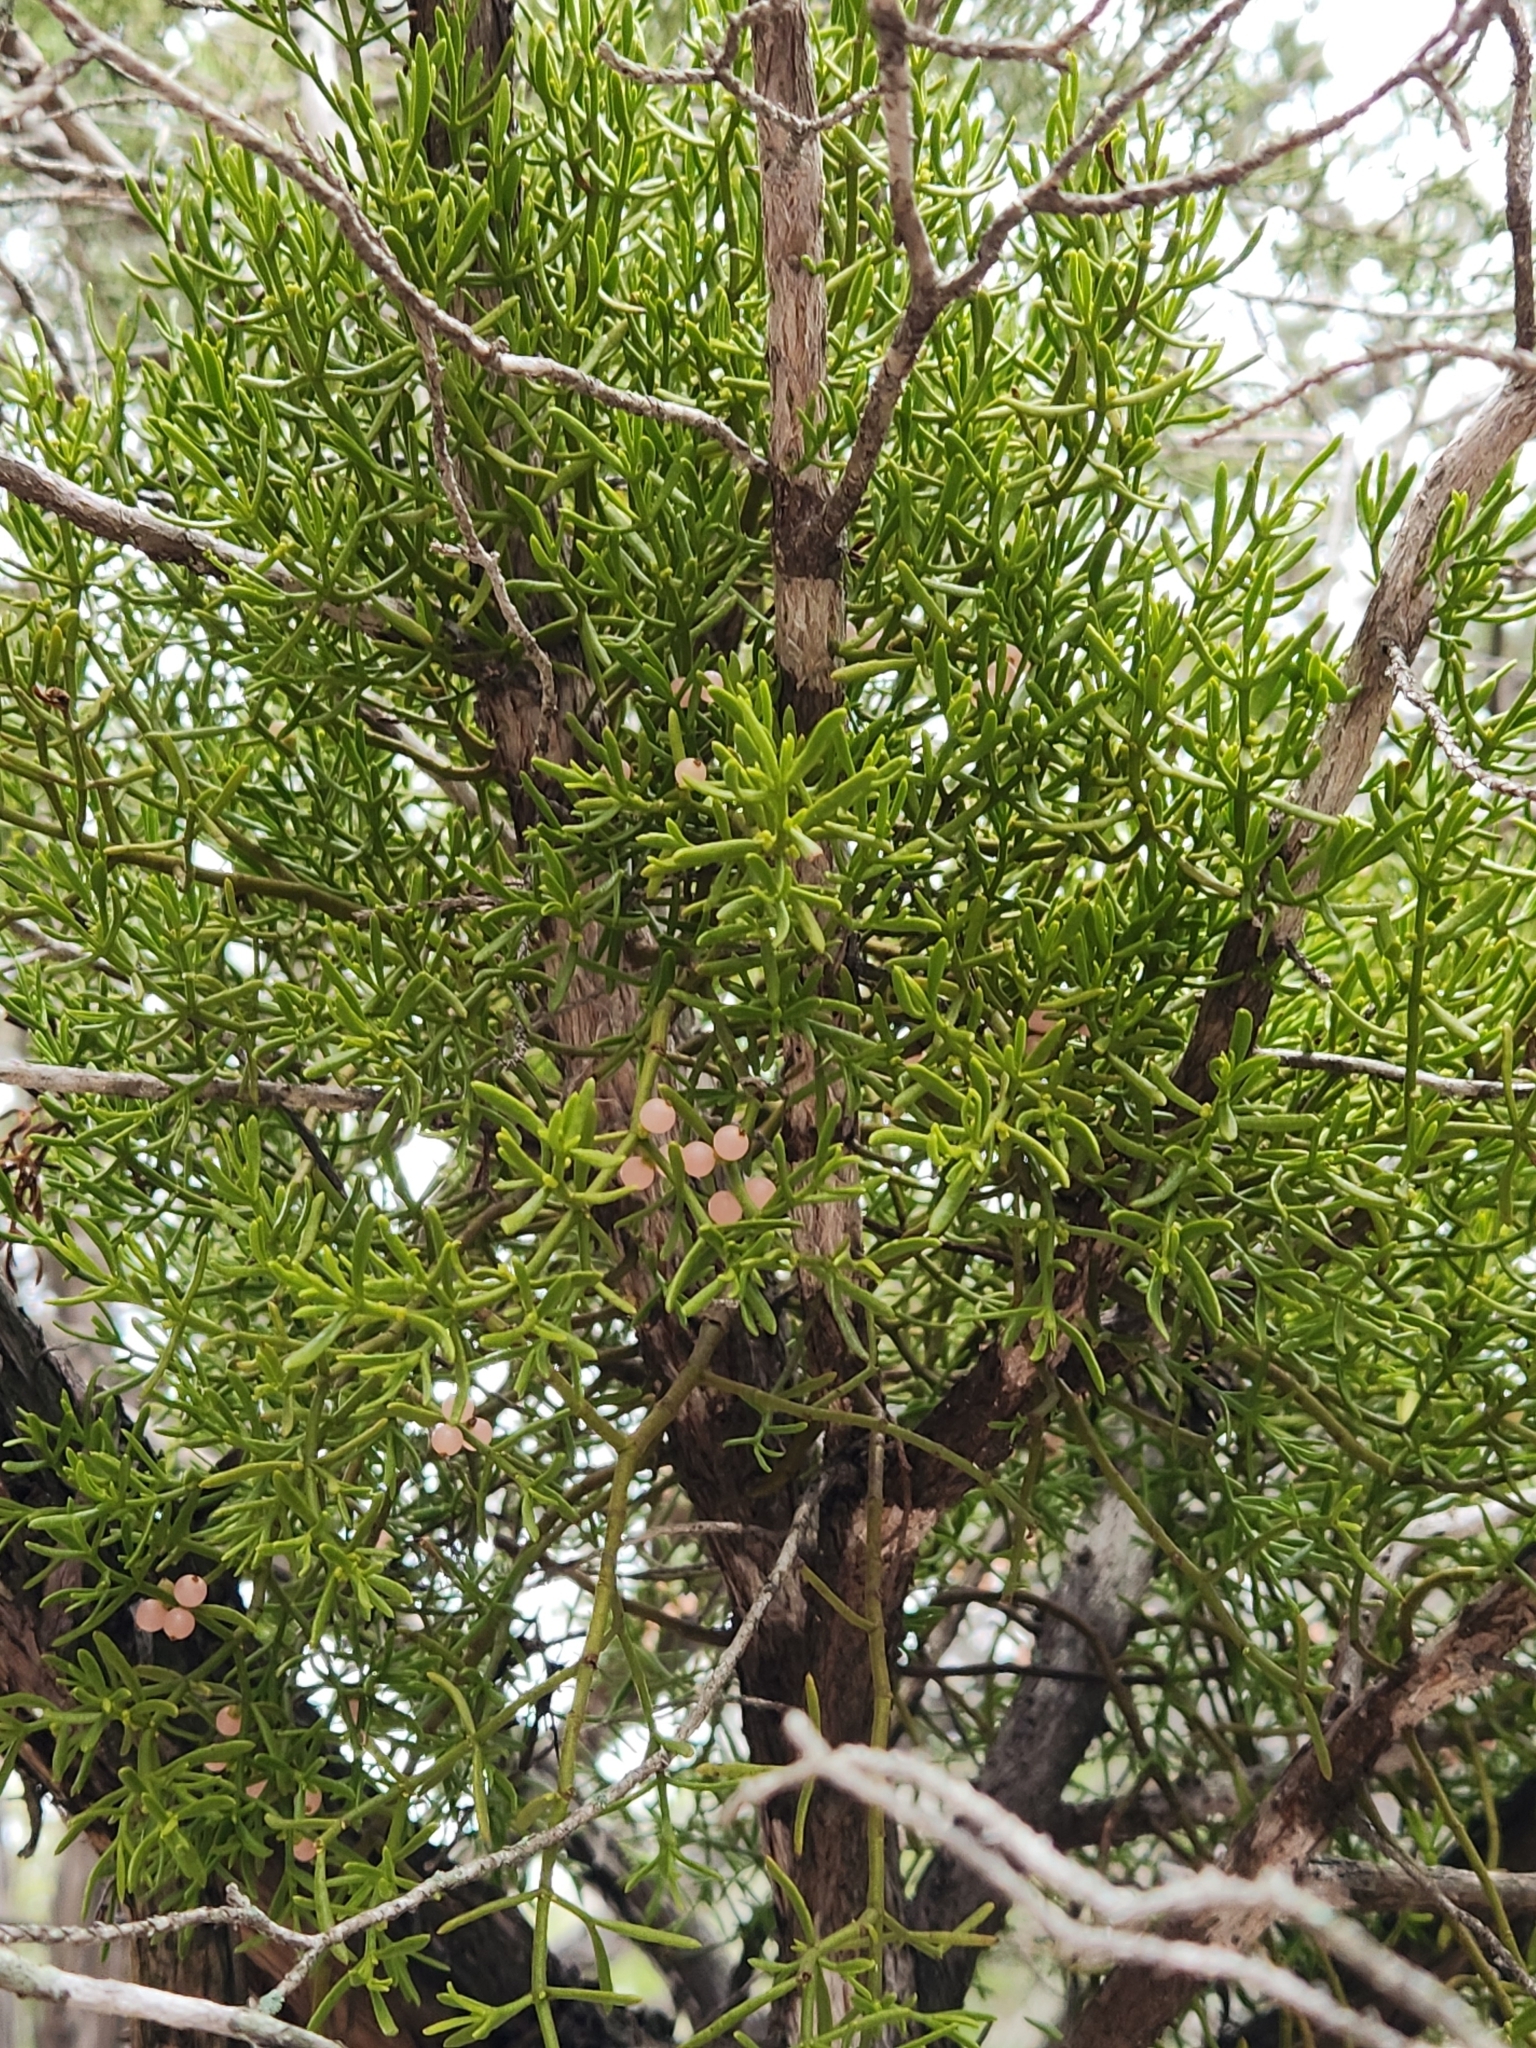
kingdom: Plantae
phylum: Tracheophyta
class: Magnoliopsida
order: Santalales
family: Viscaceae
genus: Phoradendron
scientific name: Phoradendron hawksworthii
